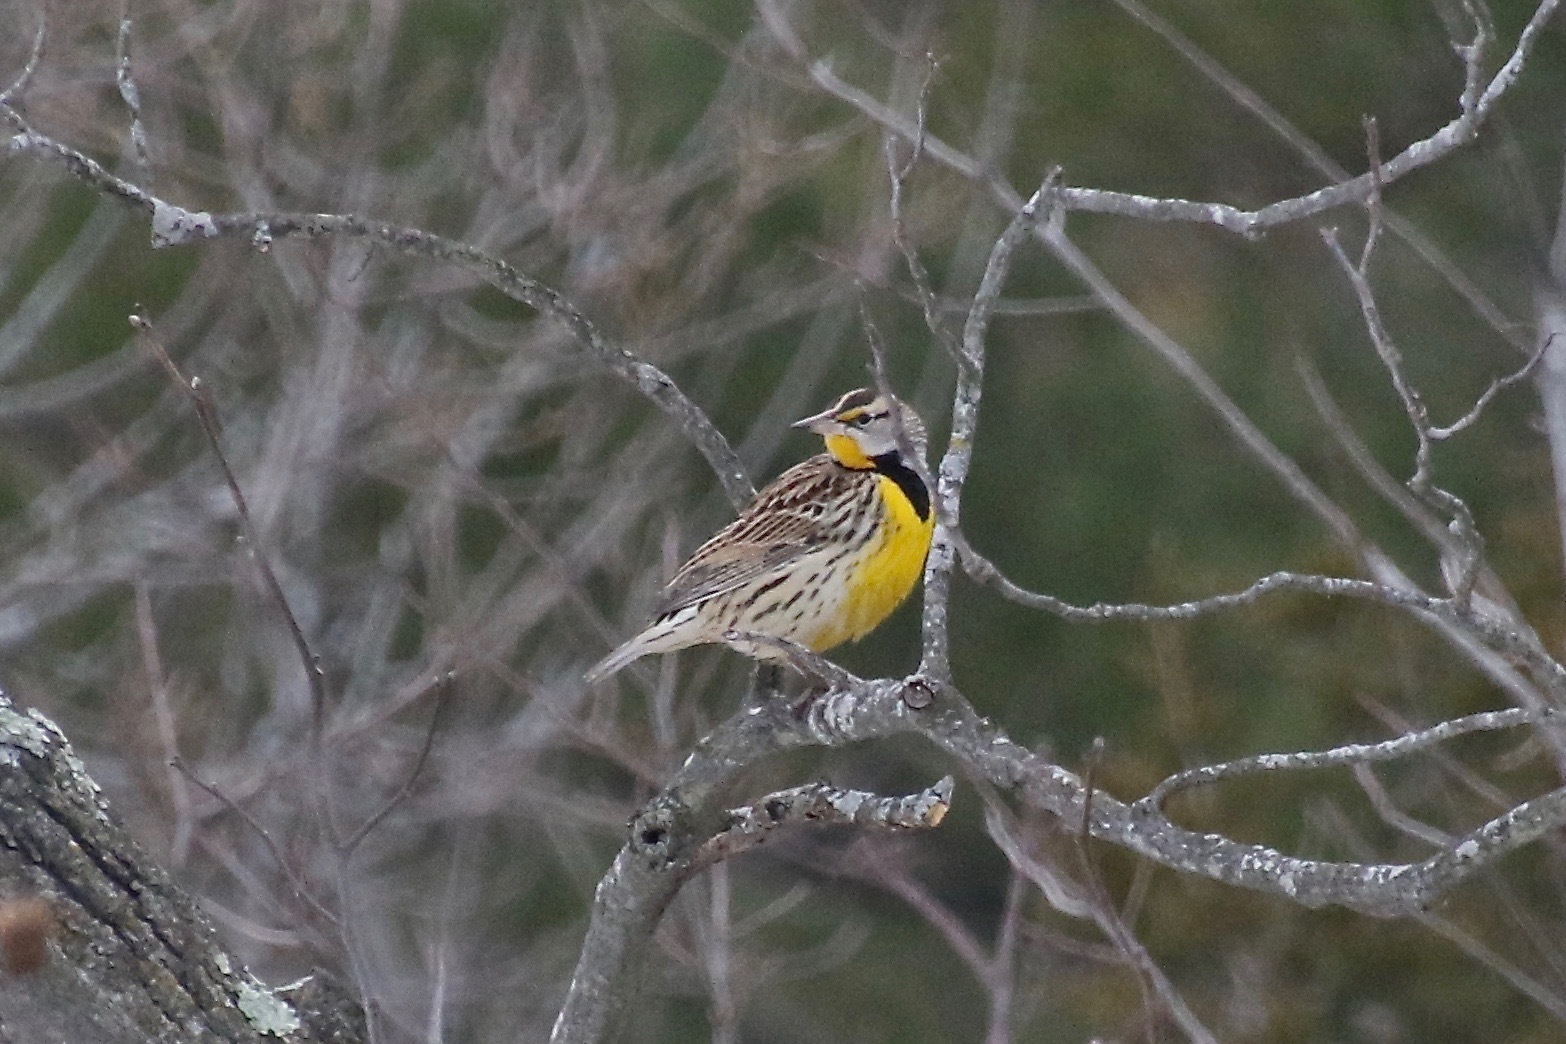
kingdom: Animalia
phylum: Chordata
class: Aves
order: Passeriformes
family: Icteridae
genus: Sturnella
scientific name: Sturnella magna
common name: Eastern meadowlark
